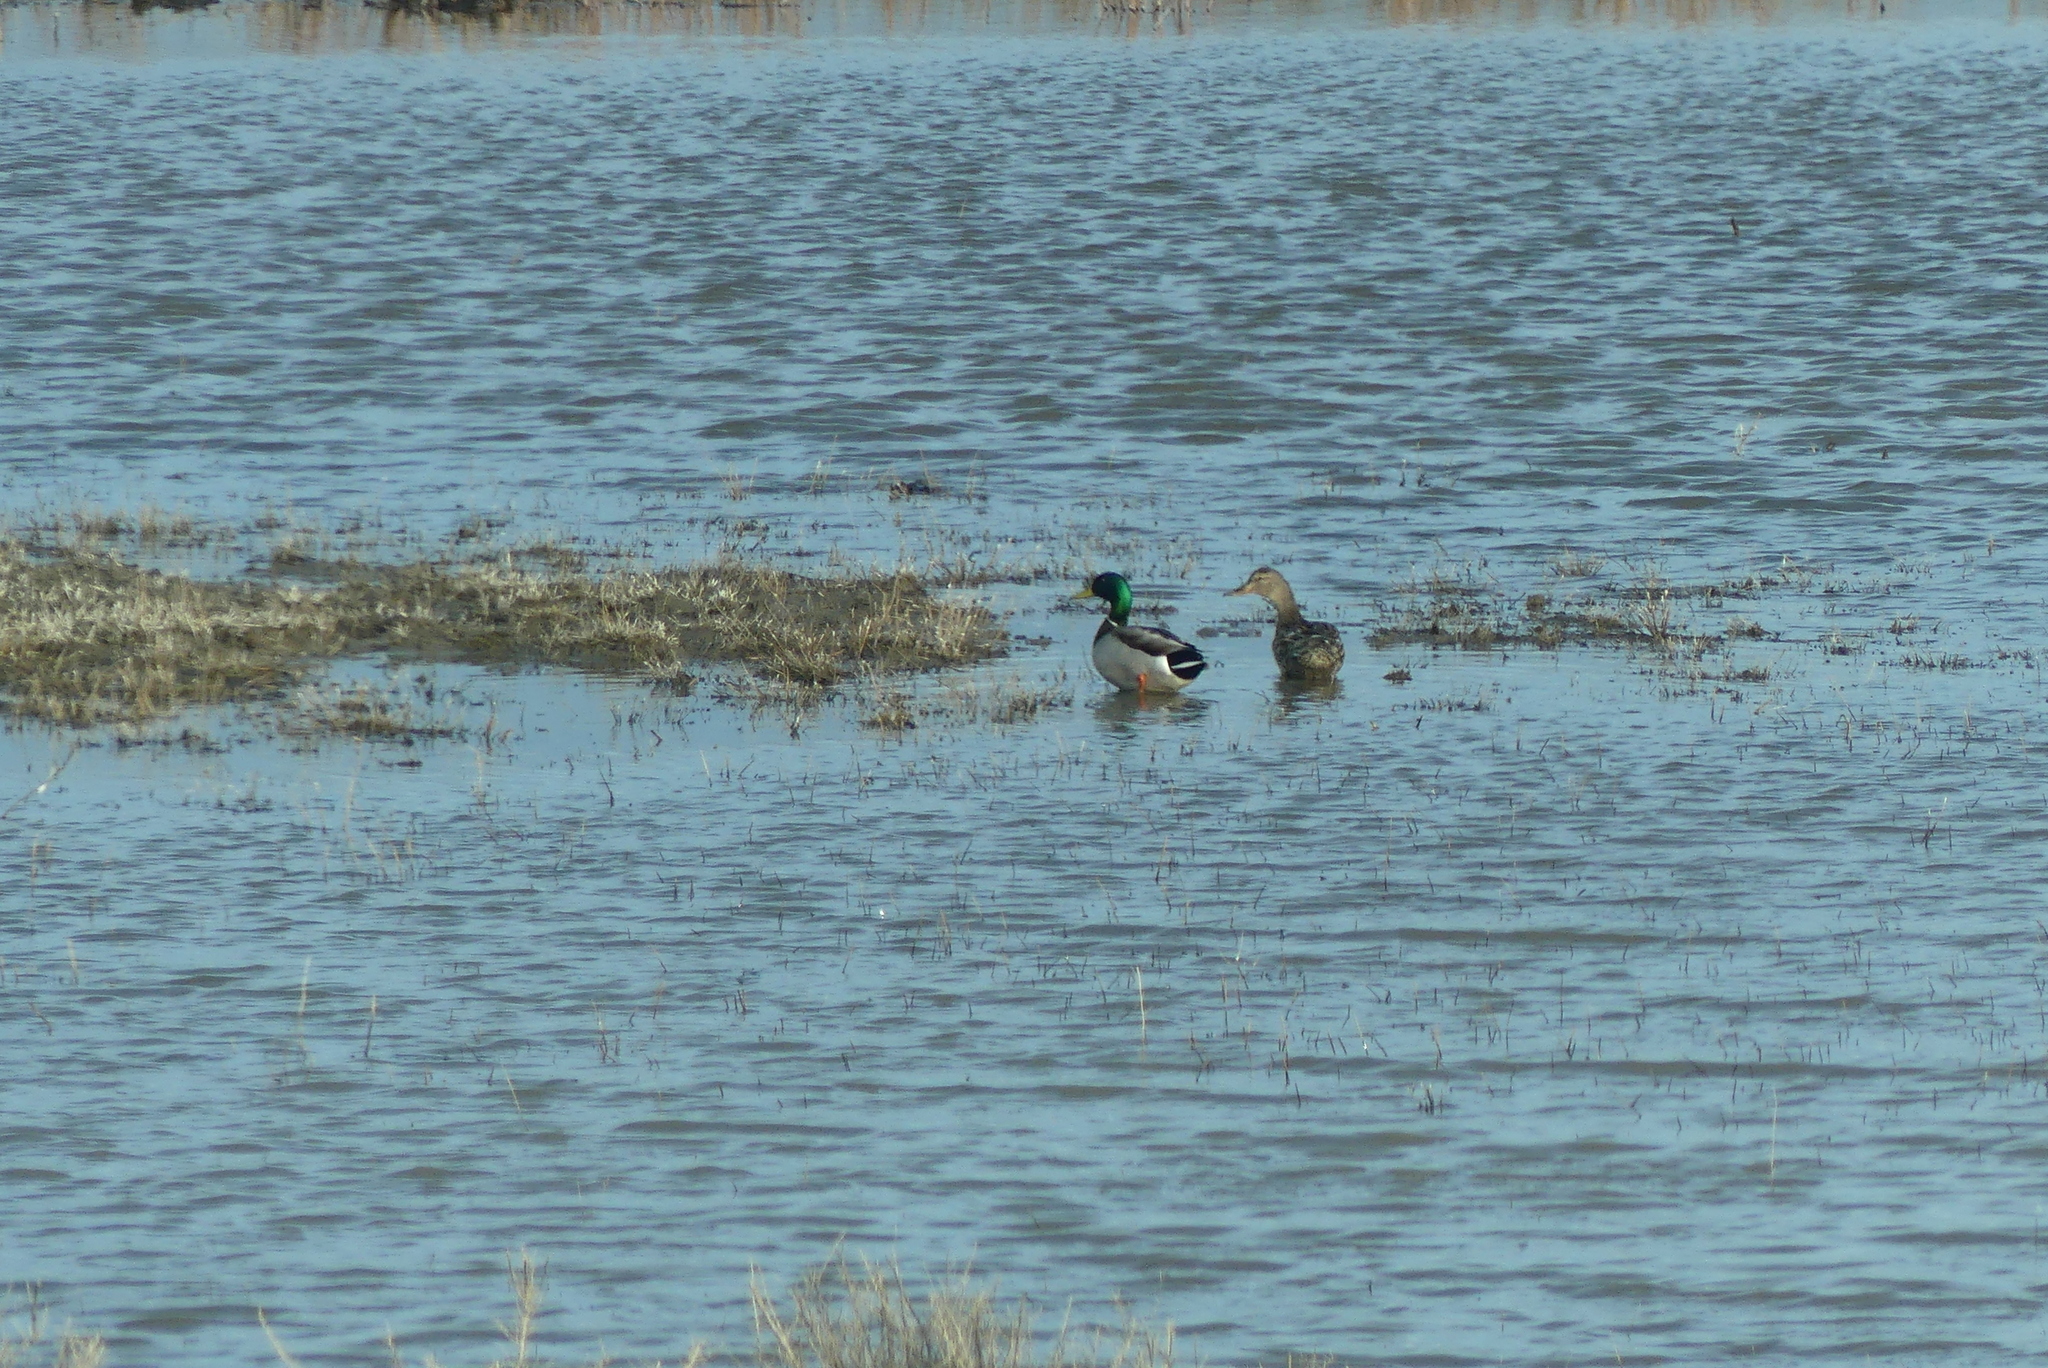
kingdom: Animalia
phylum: Chordata
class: Aves
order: Anseriformes
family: Anatidae
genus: Anas
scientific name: Anas platyrhynchos
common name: Mallard
